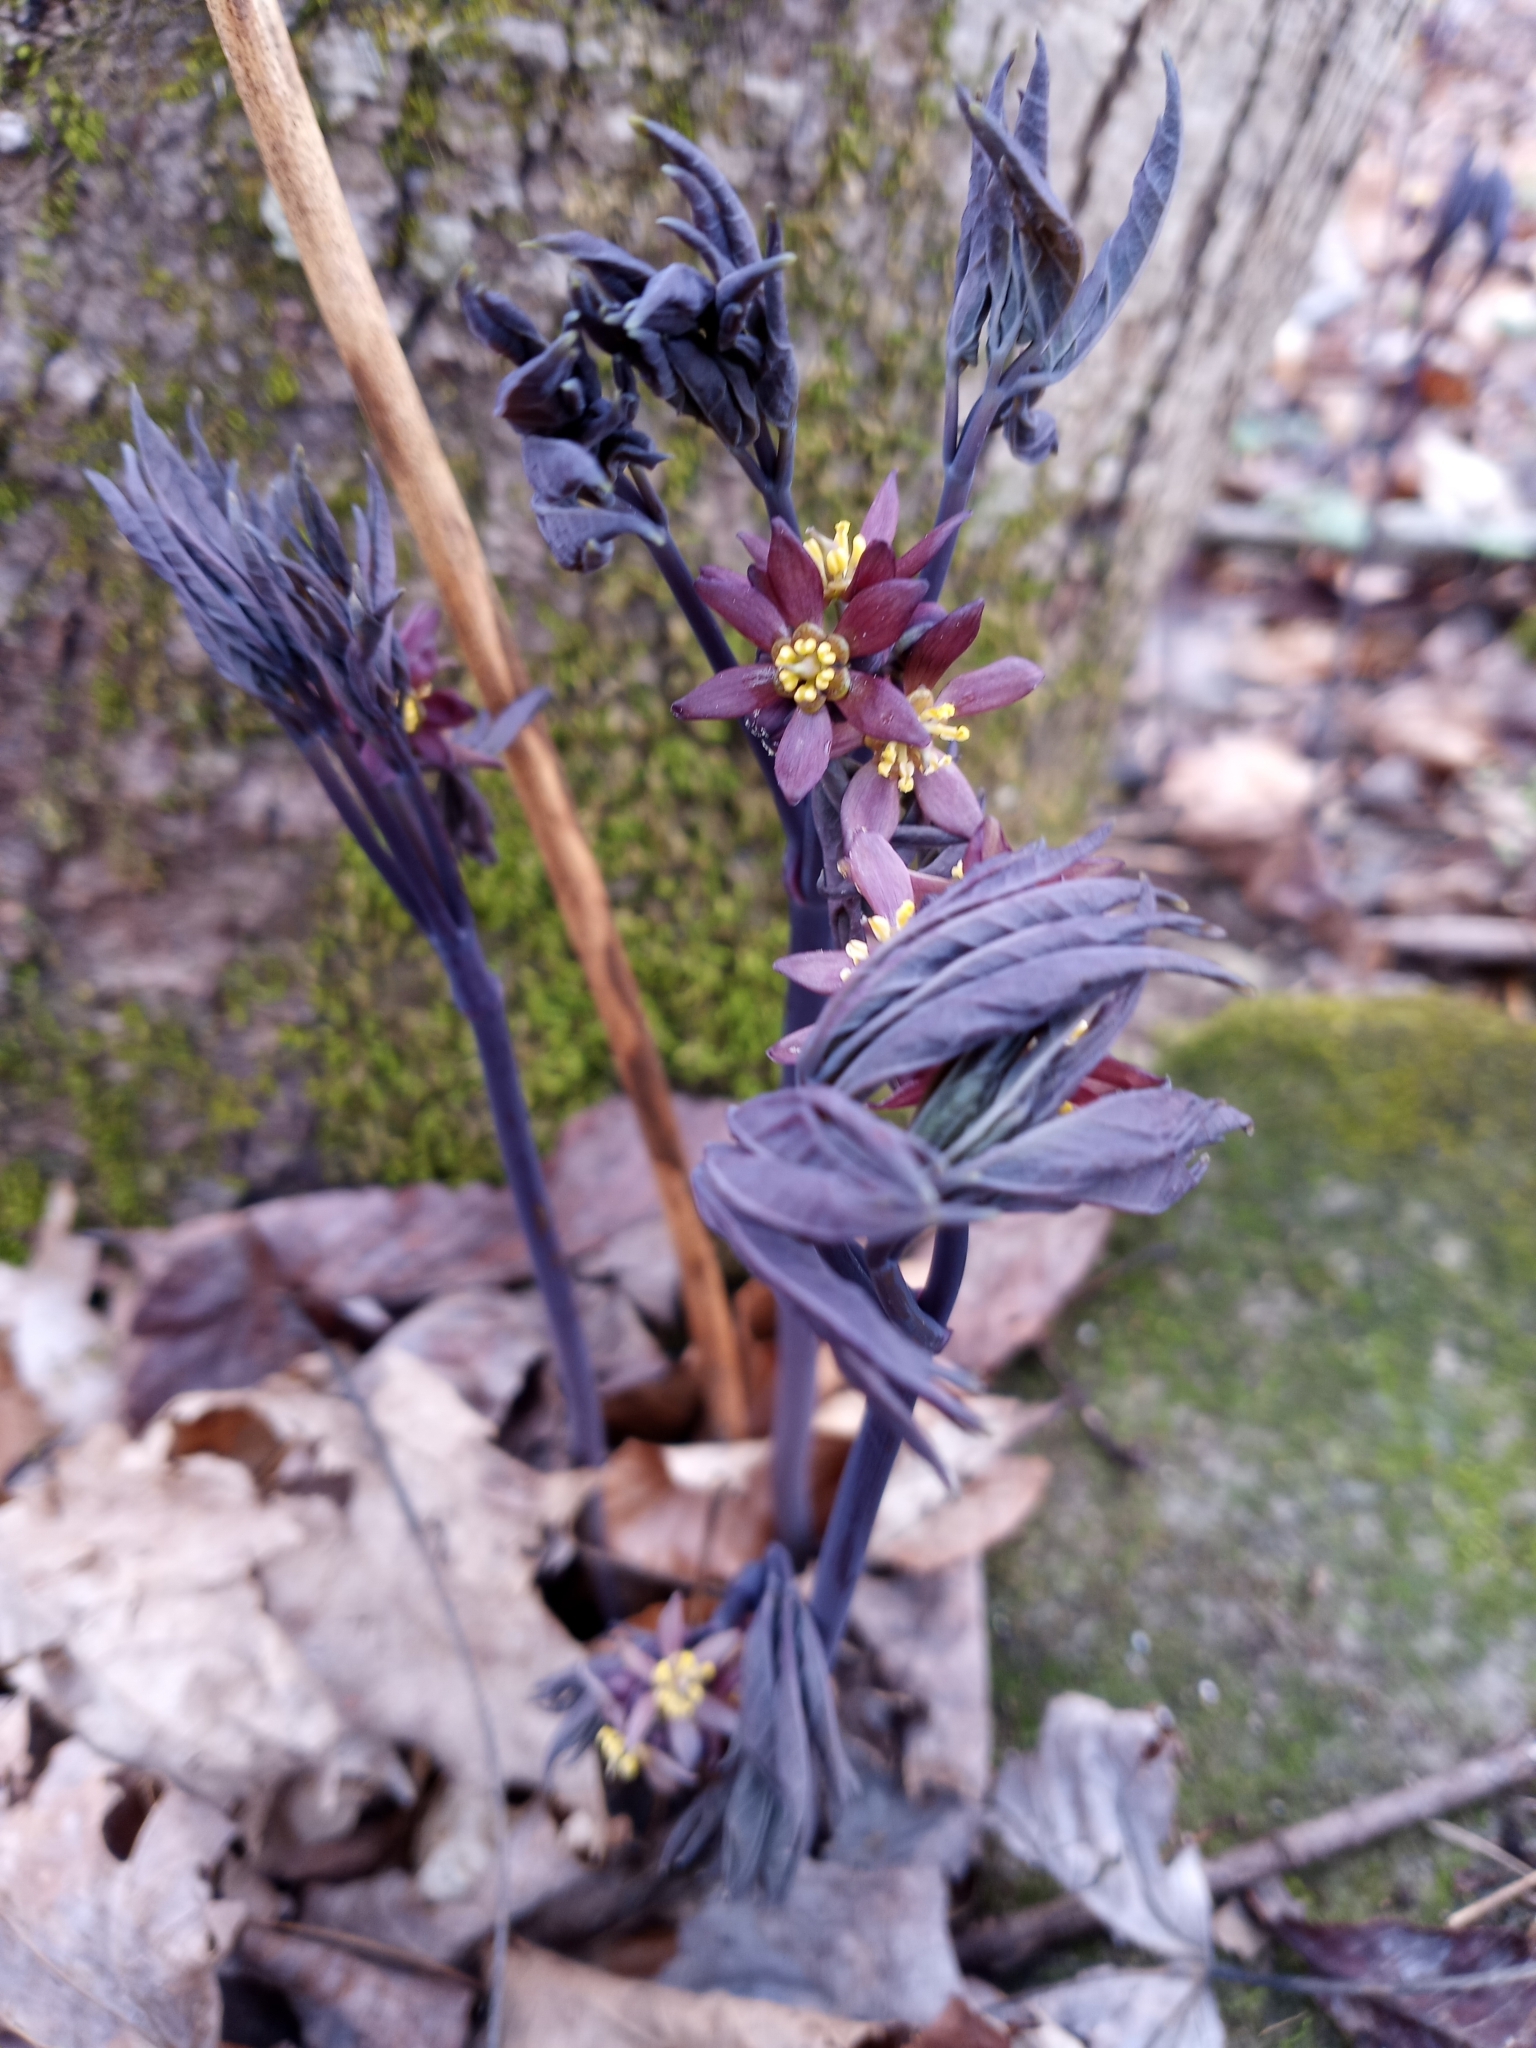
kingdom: Plantae
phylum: Tracheophyta
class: Magnoliopsida
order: Ranunculales
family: Berberidaceae
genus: Caulophyllum
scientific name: Caulophyllum giganteum
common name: Blue cohosh
